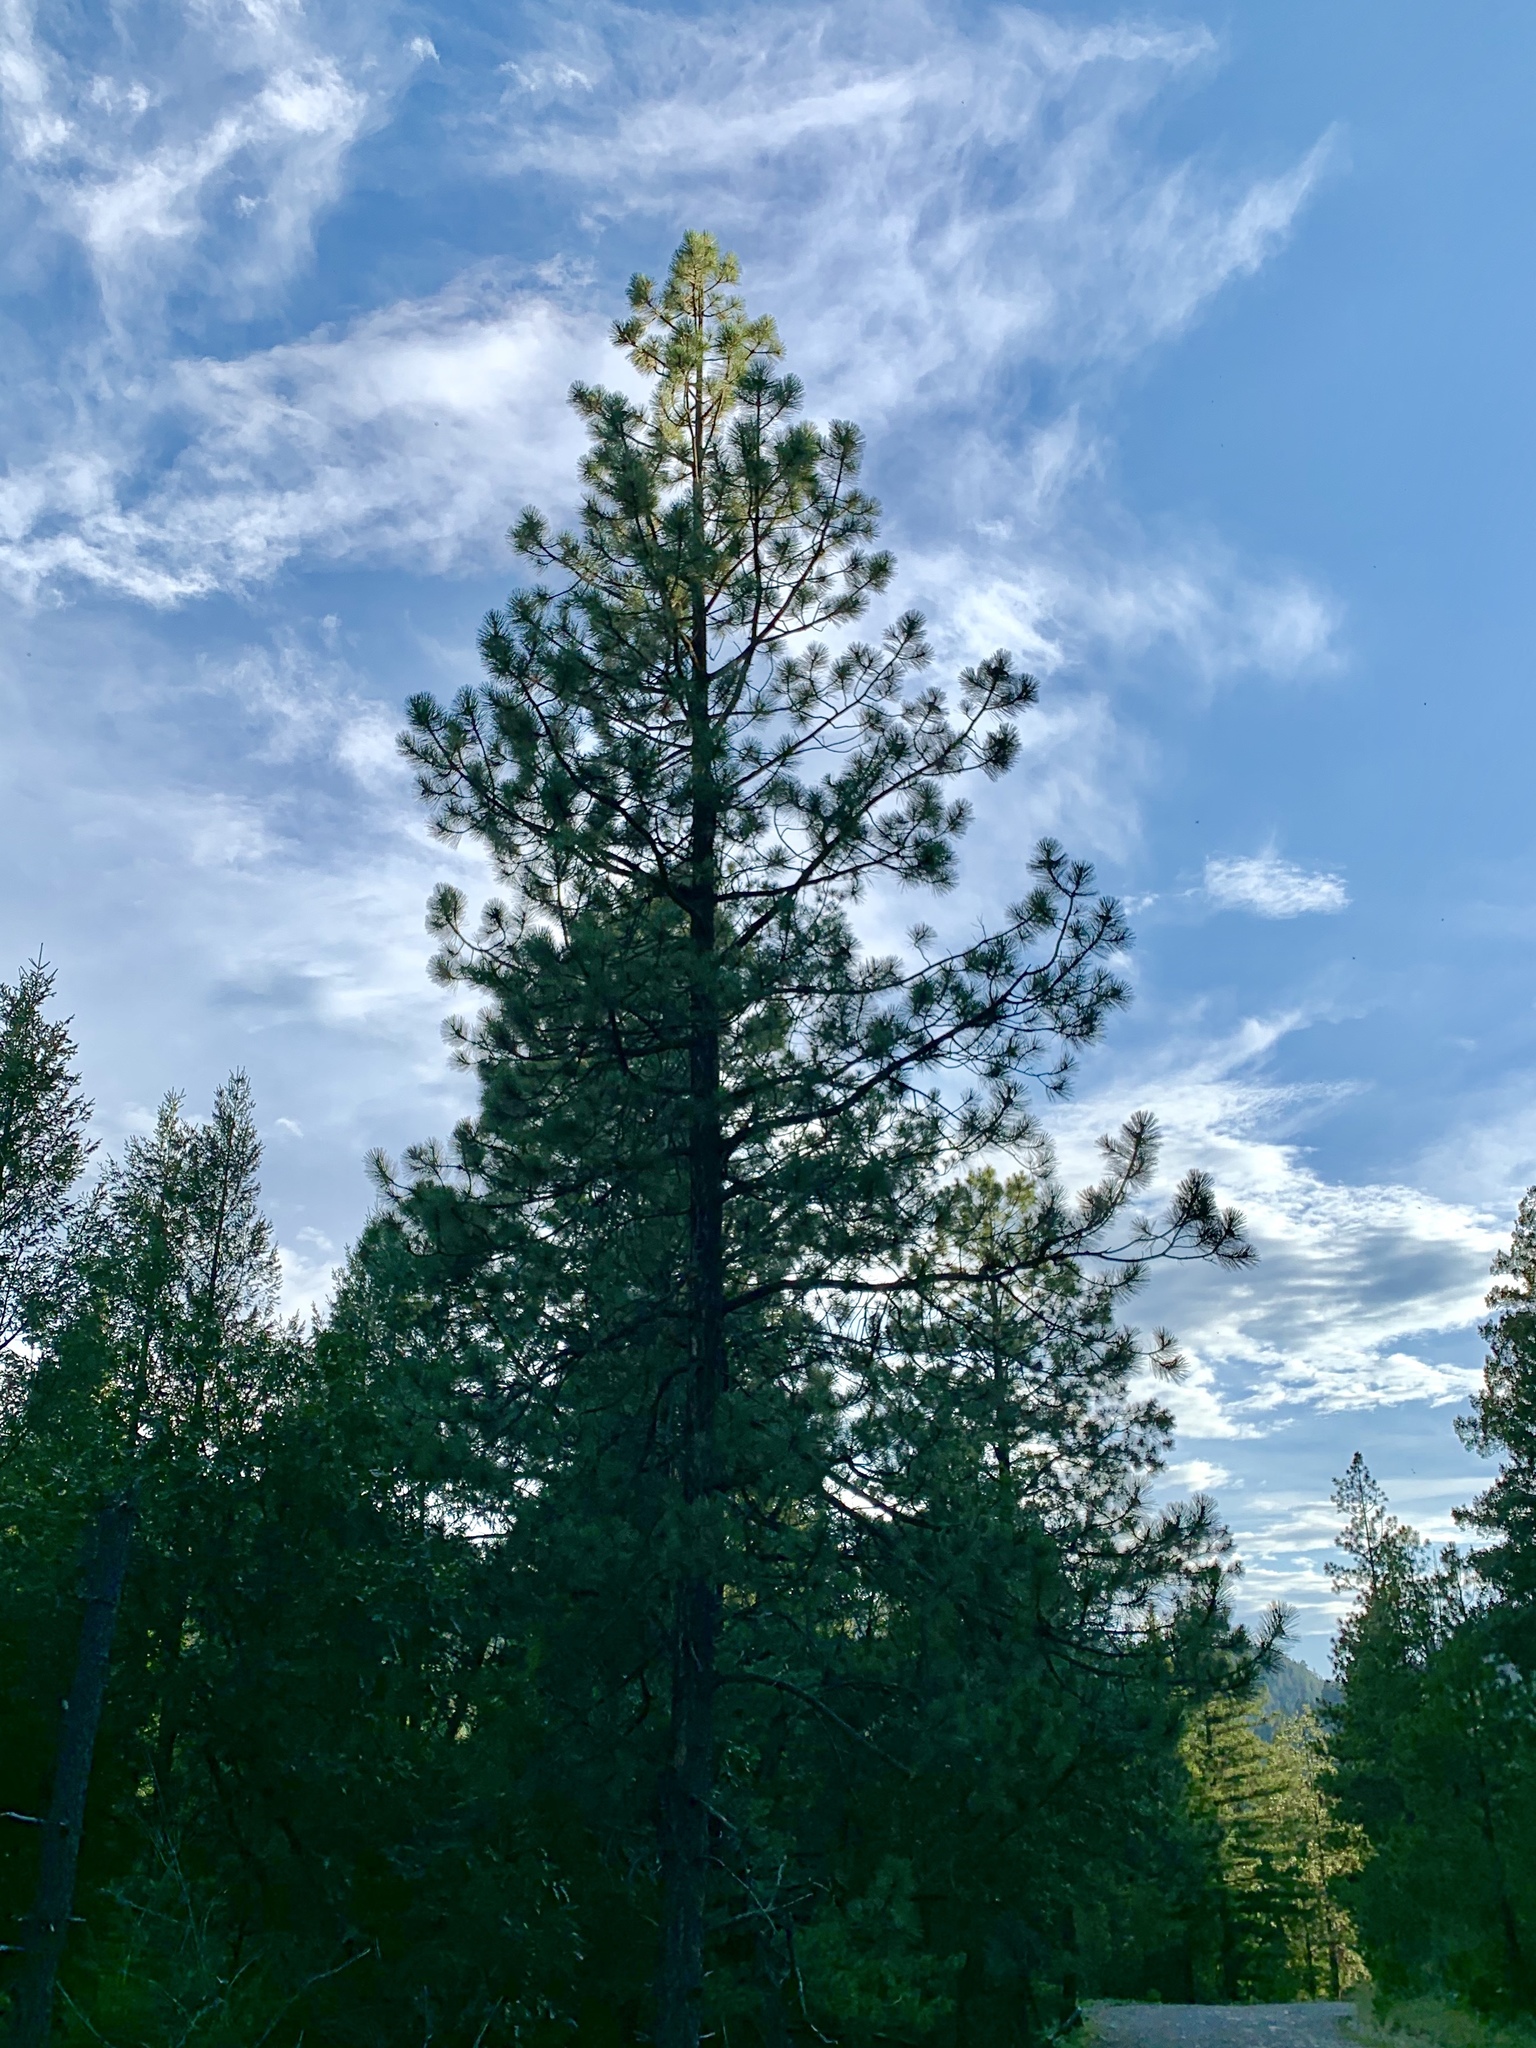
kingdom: Plantae
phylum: Tracheophyta
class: Pinopsida
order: Pinales
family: Pinaceae
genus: Pinus
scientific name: Pinus ponderosa
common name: Western yellow-pine
